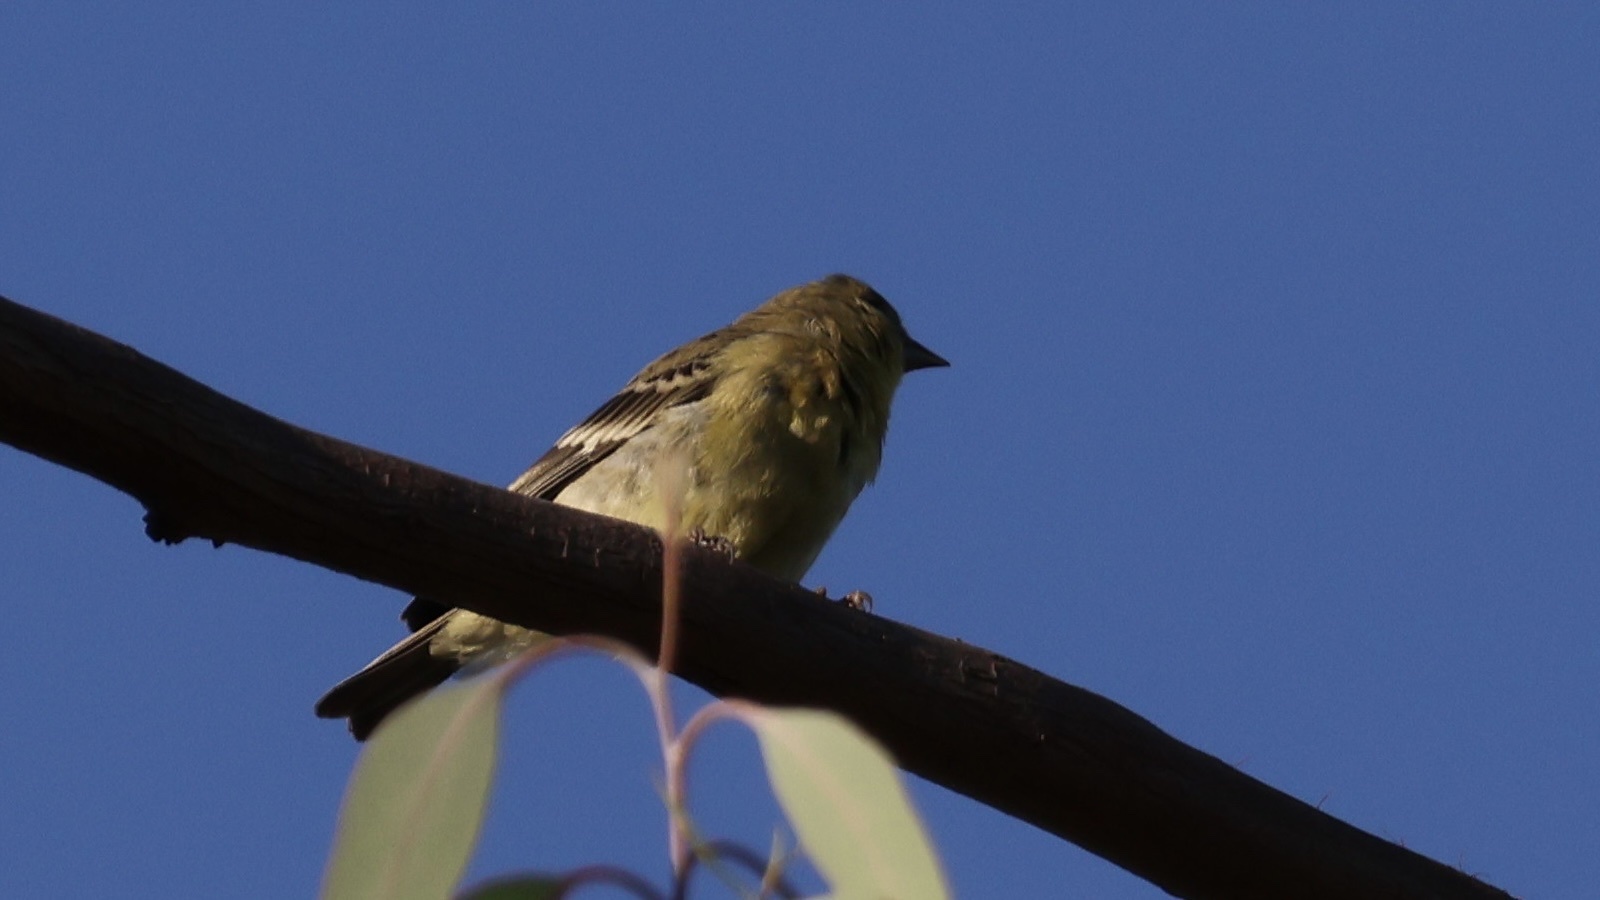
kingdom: Animalia
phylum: Chordata
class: Aves
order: Passeriformes
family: Fringillidae
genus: Spinus
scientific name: Spinus psaltria
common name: Lesser goldfinch
